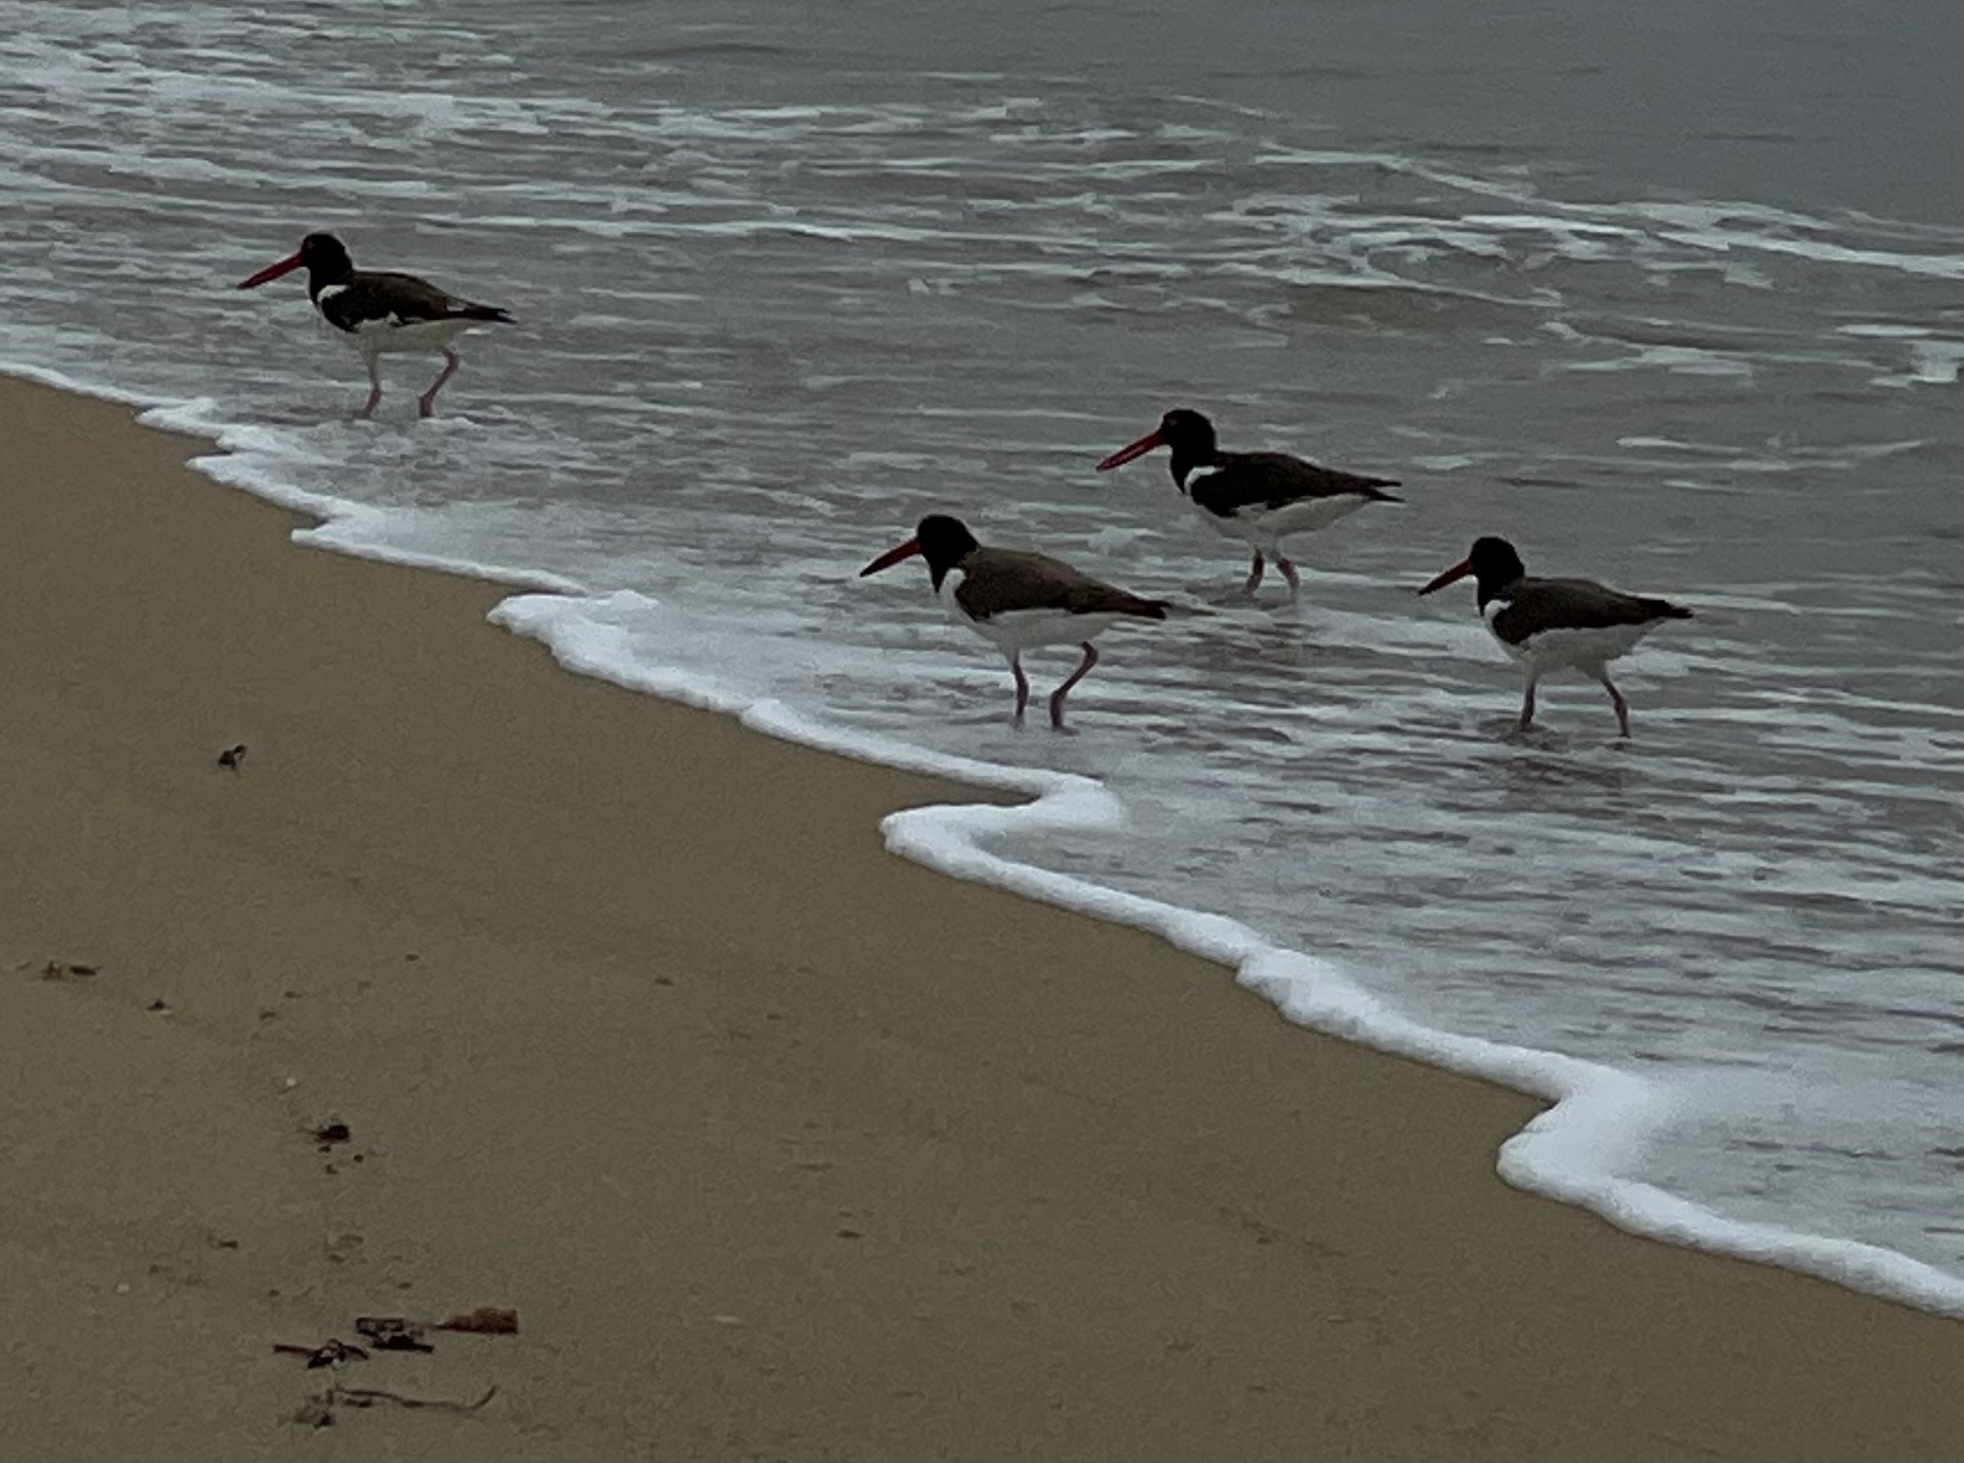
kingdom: Animalia
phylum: Chordata
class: Aves
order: Charadriiformes
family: Haematopodidae
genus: Haematopus
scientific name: Haematopus palliatus
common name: American oystercatcher
